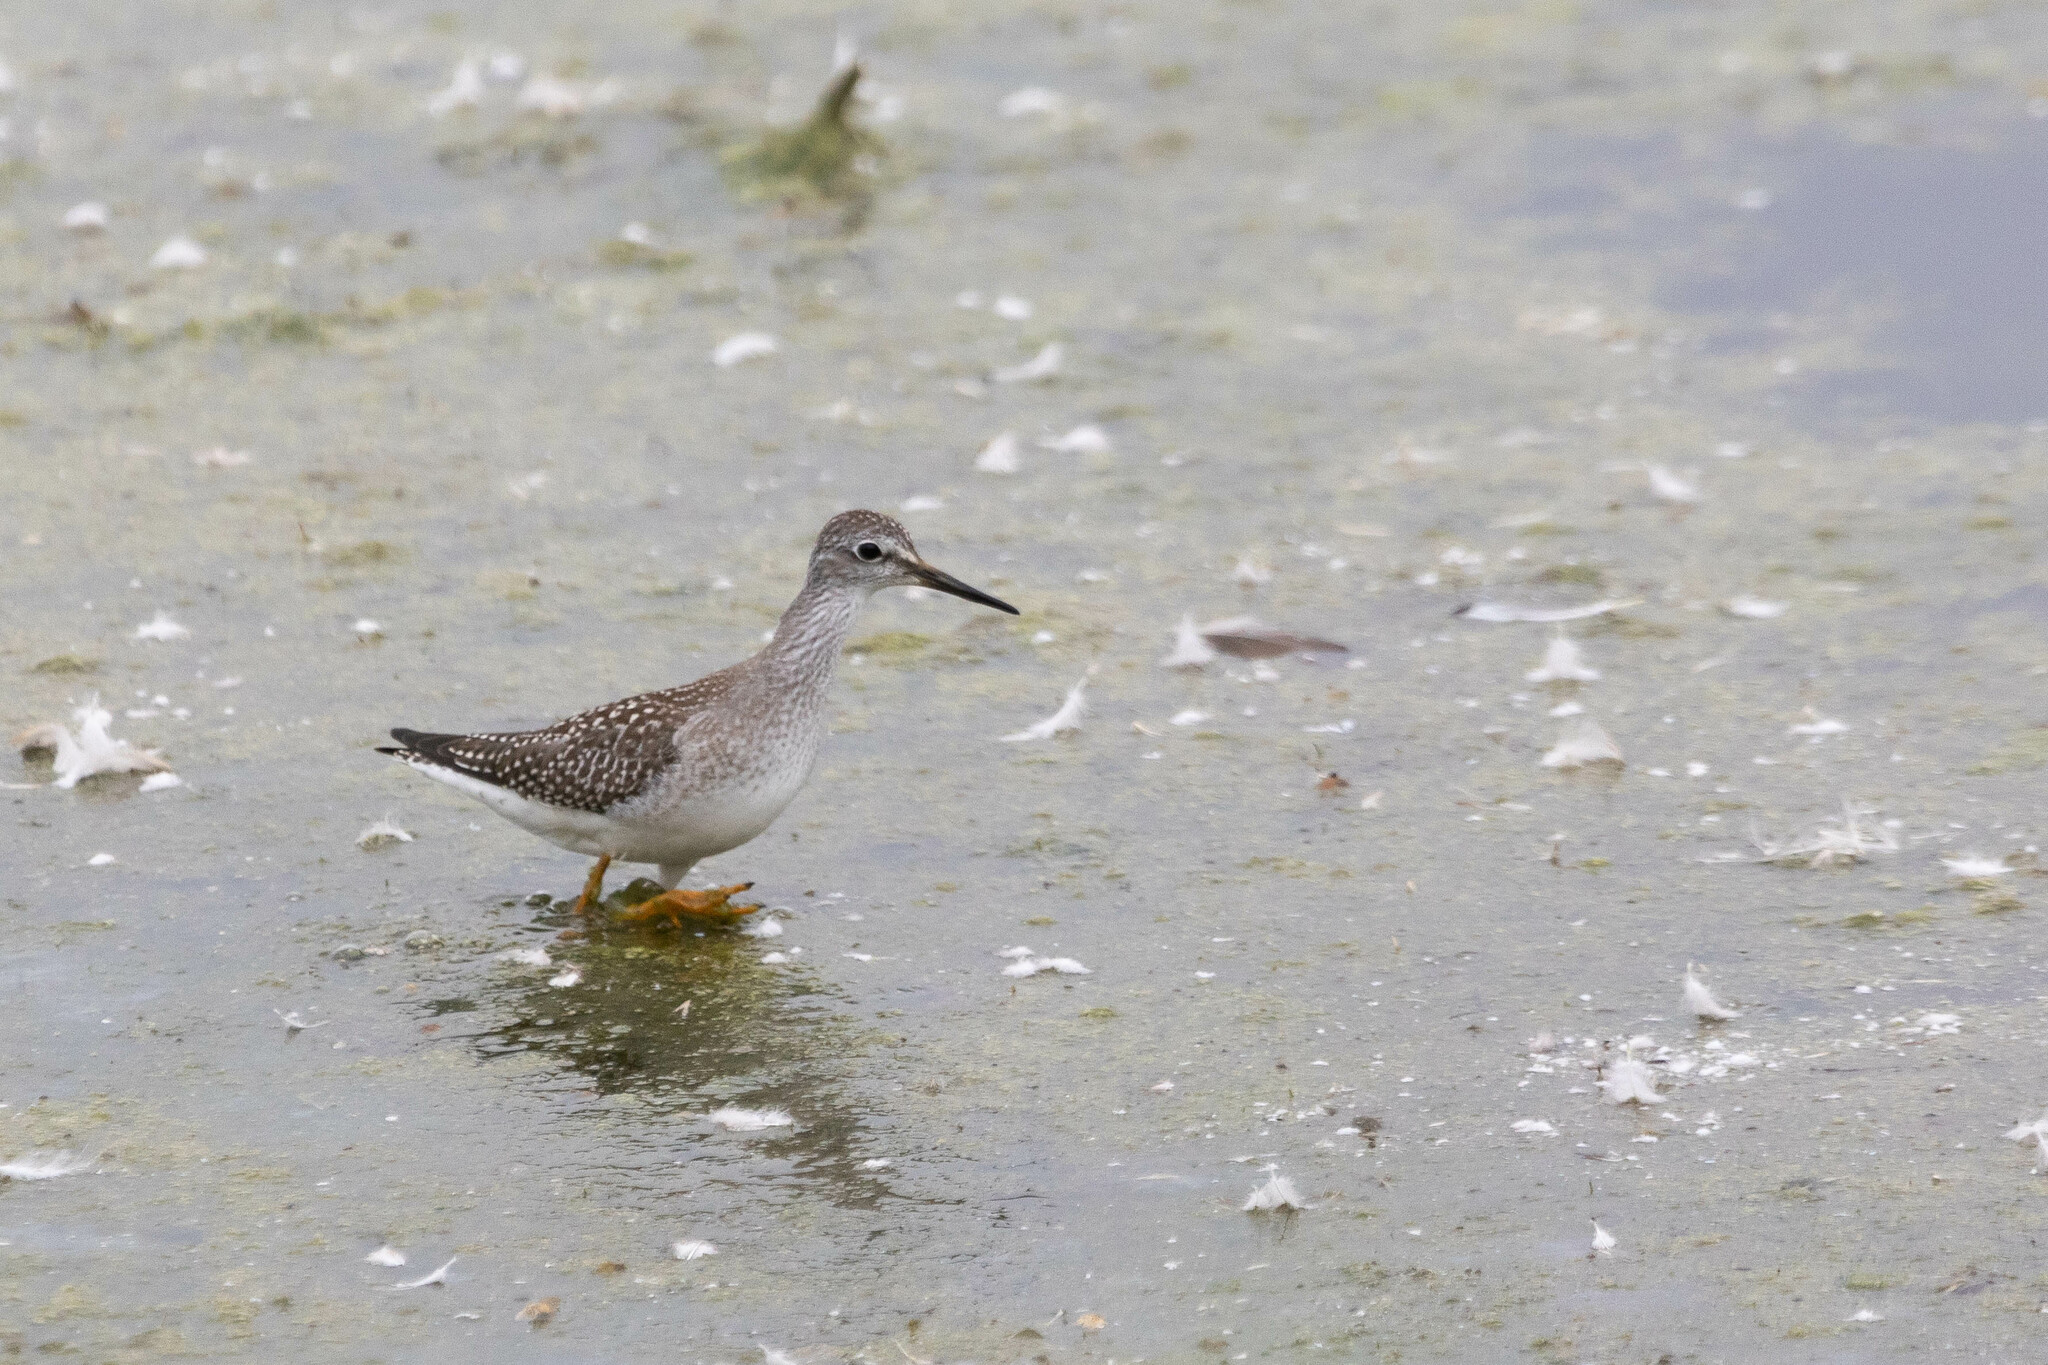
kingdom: Animalia
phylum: Chordata
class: Aves
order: Charadriiformes
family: Scolopacidae
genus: Tringa
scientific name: Tringa flavipes
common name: Lesser yellowlegs
